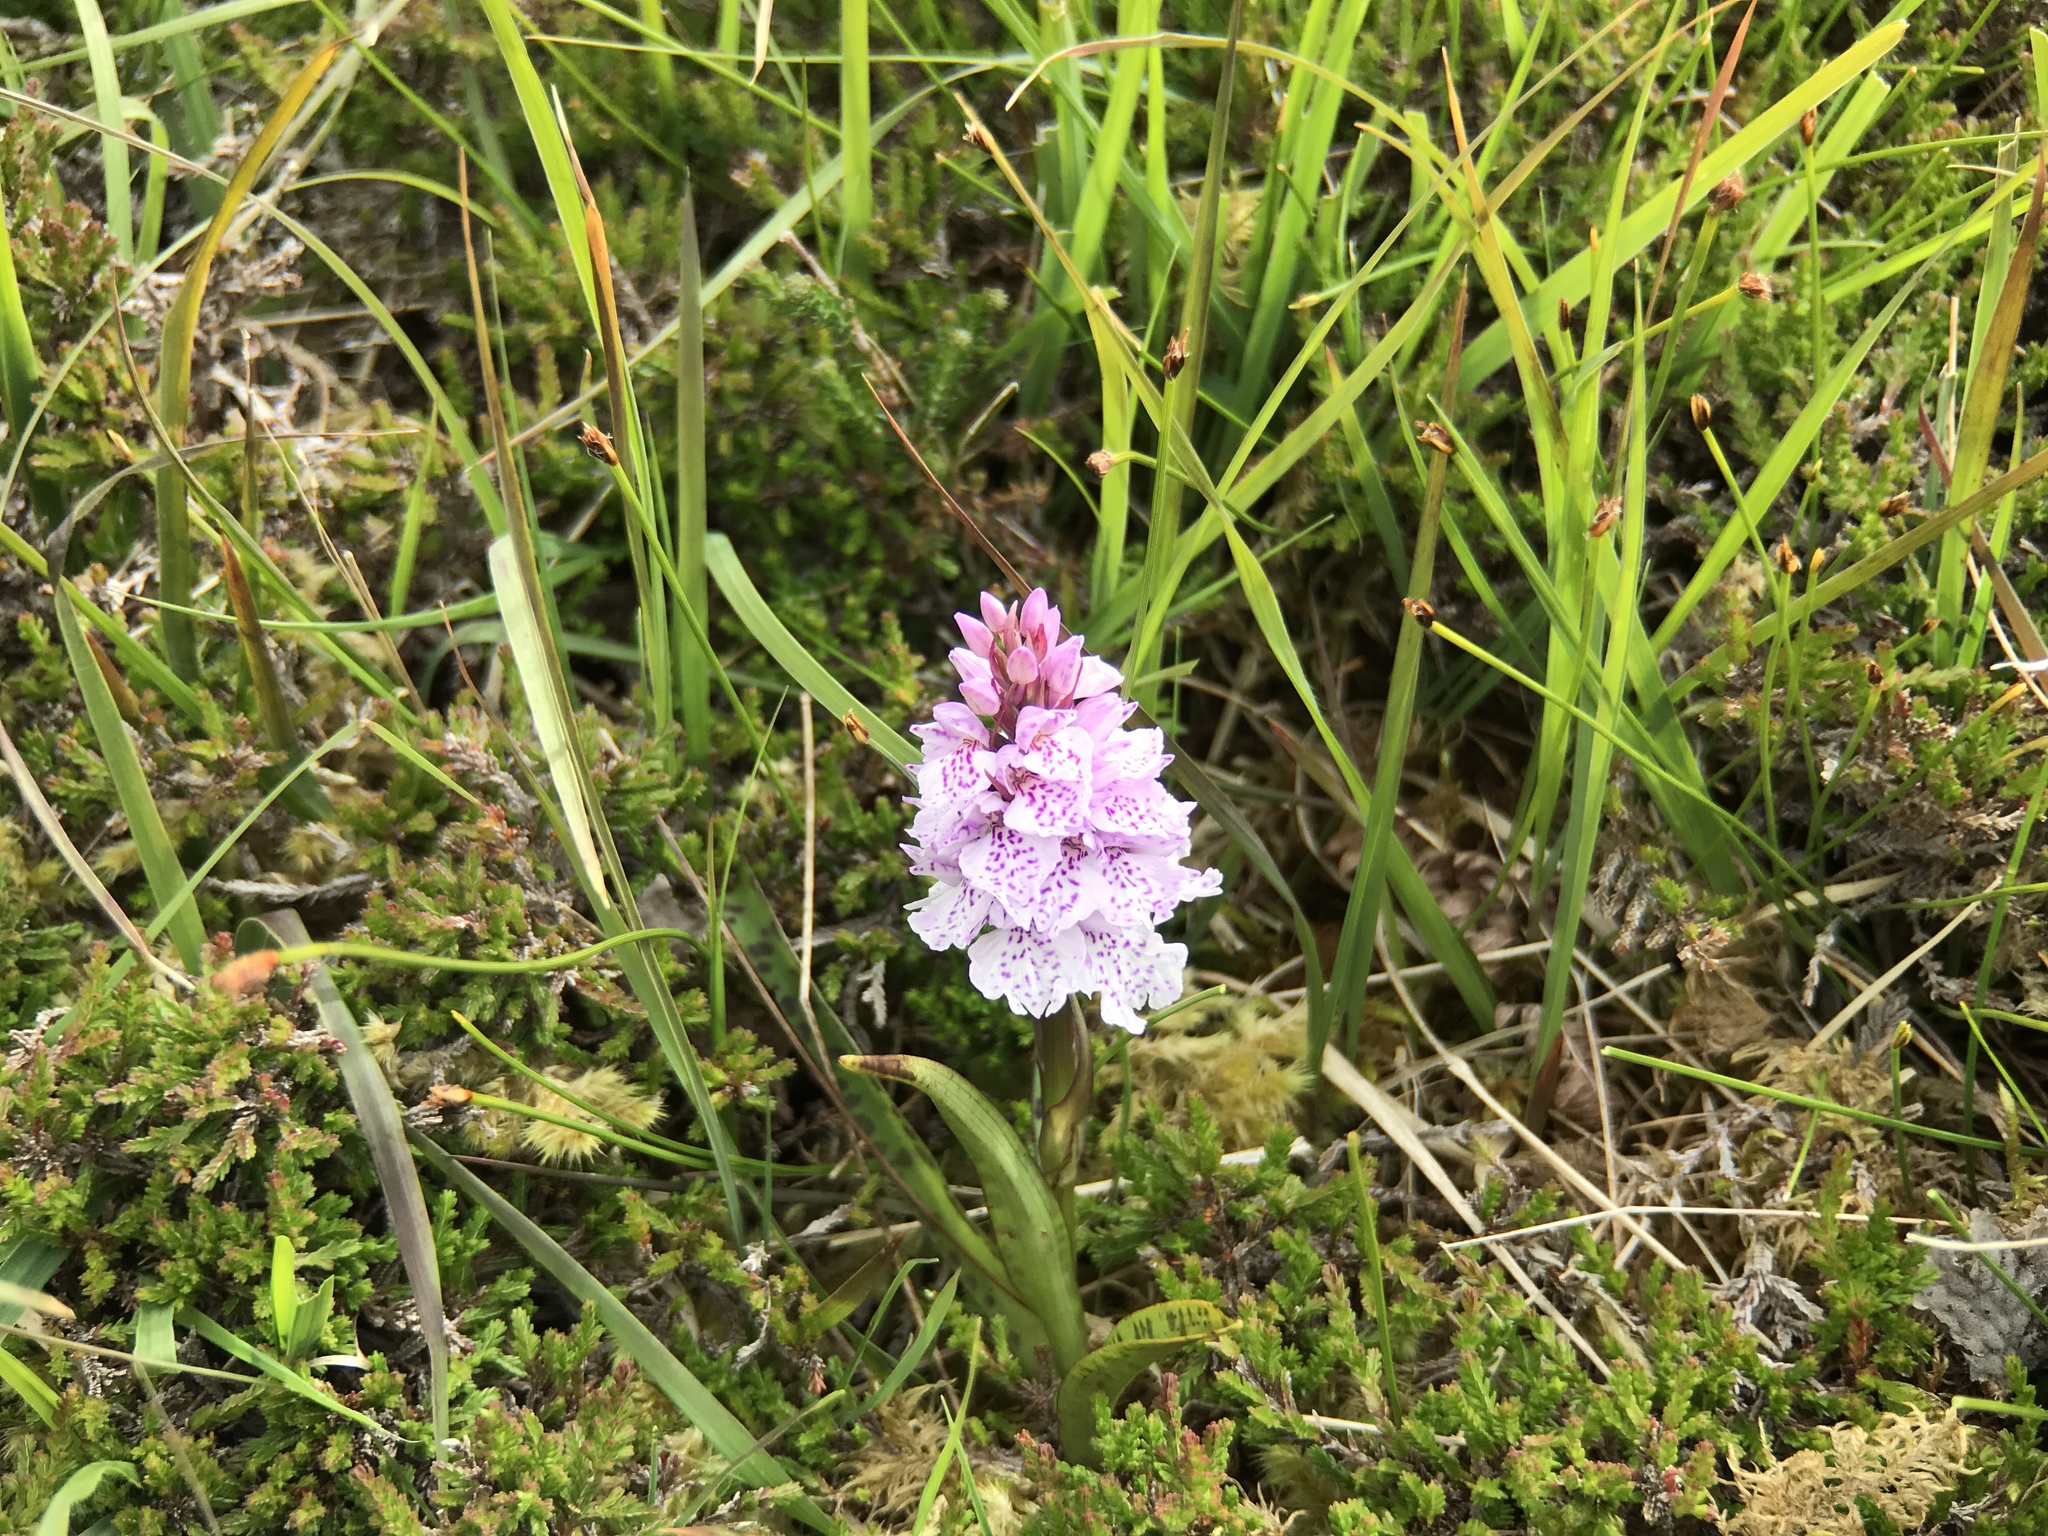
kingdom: Plantae
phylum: Tracheophyta
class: Liliopsida
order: Asparagales
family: Orchidaceae
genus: Dactylorhiza
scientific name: Dactylorhiza maculata
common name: Heath spotted-orchid
